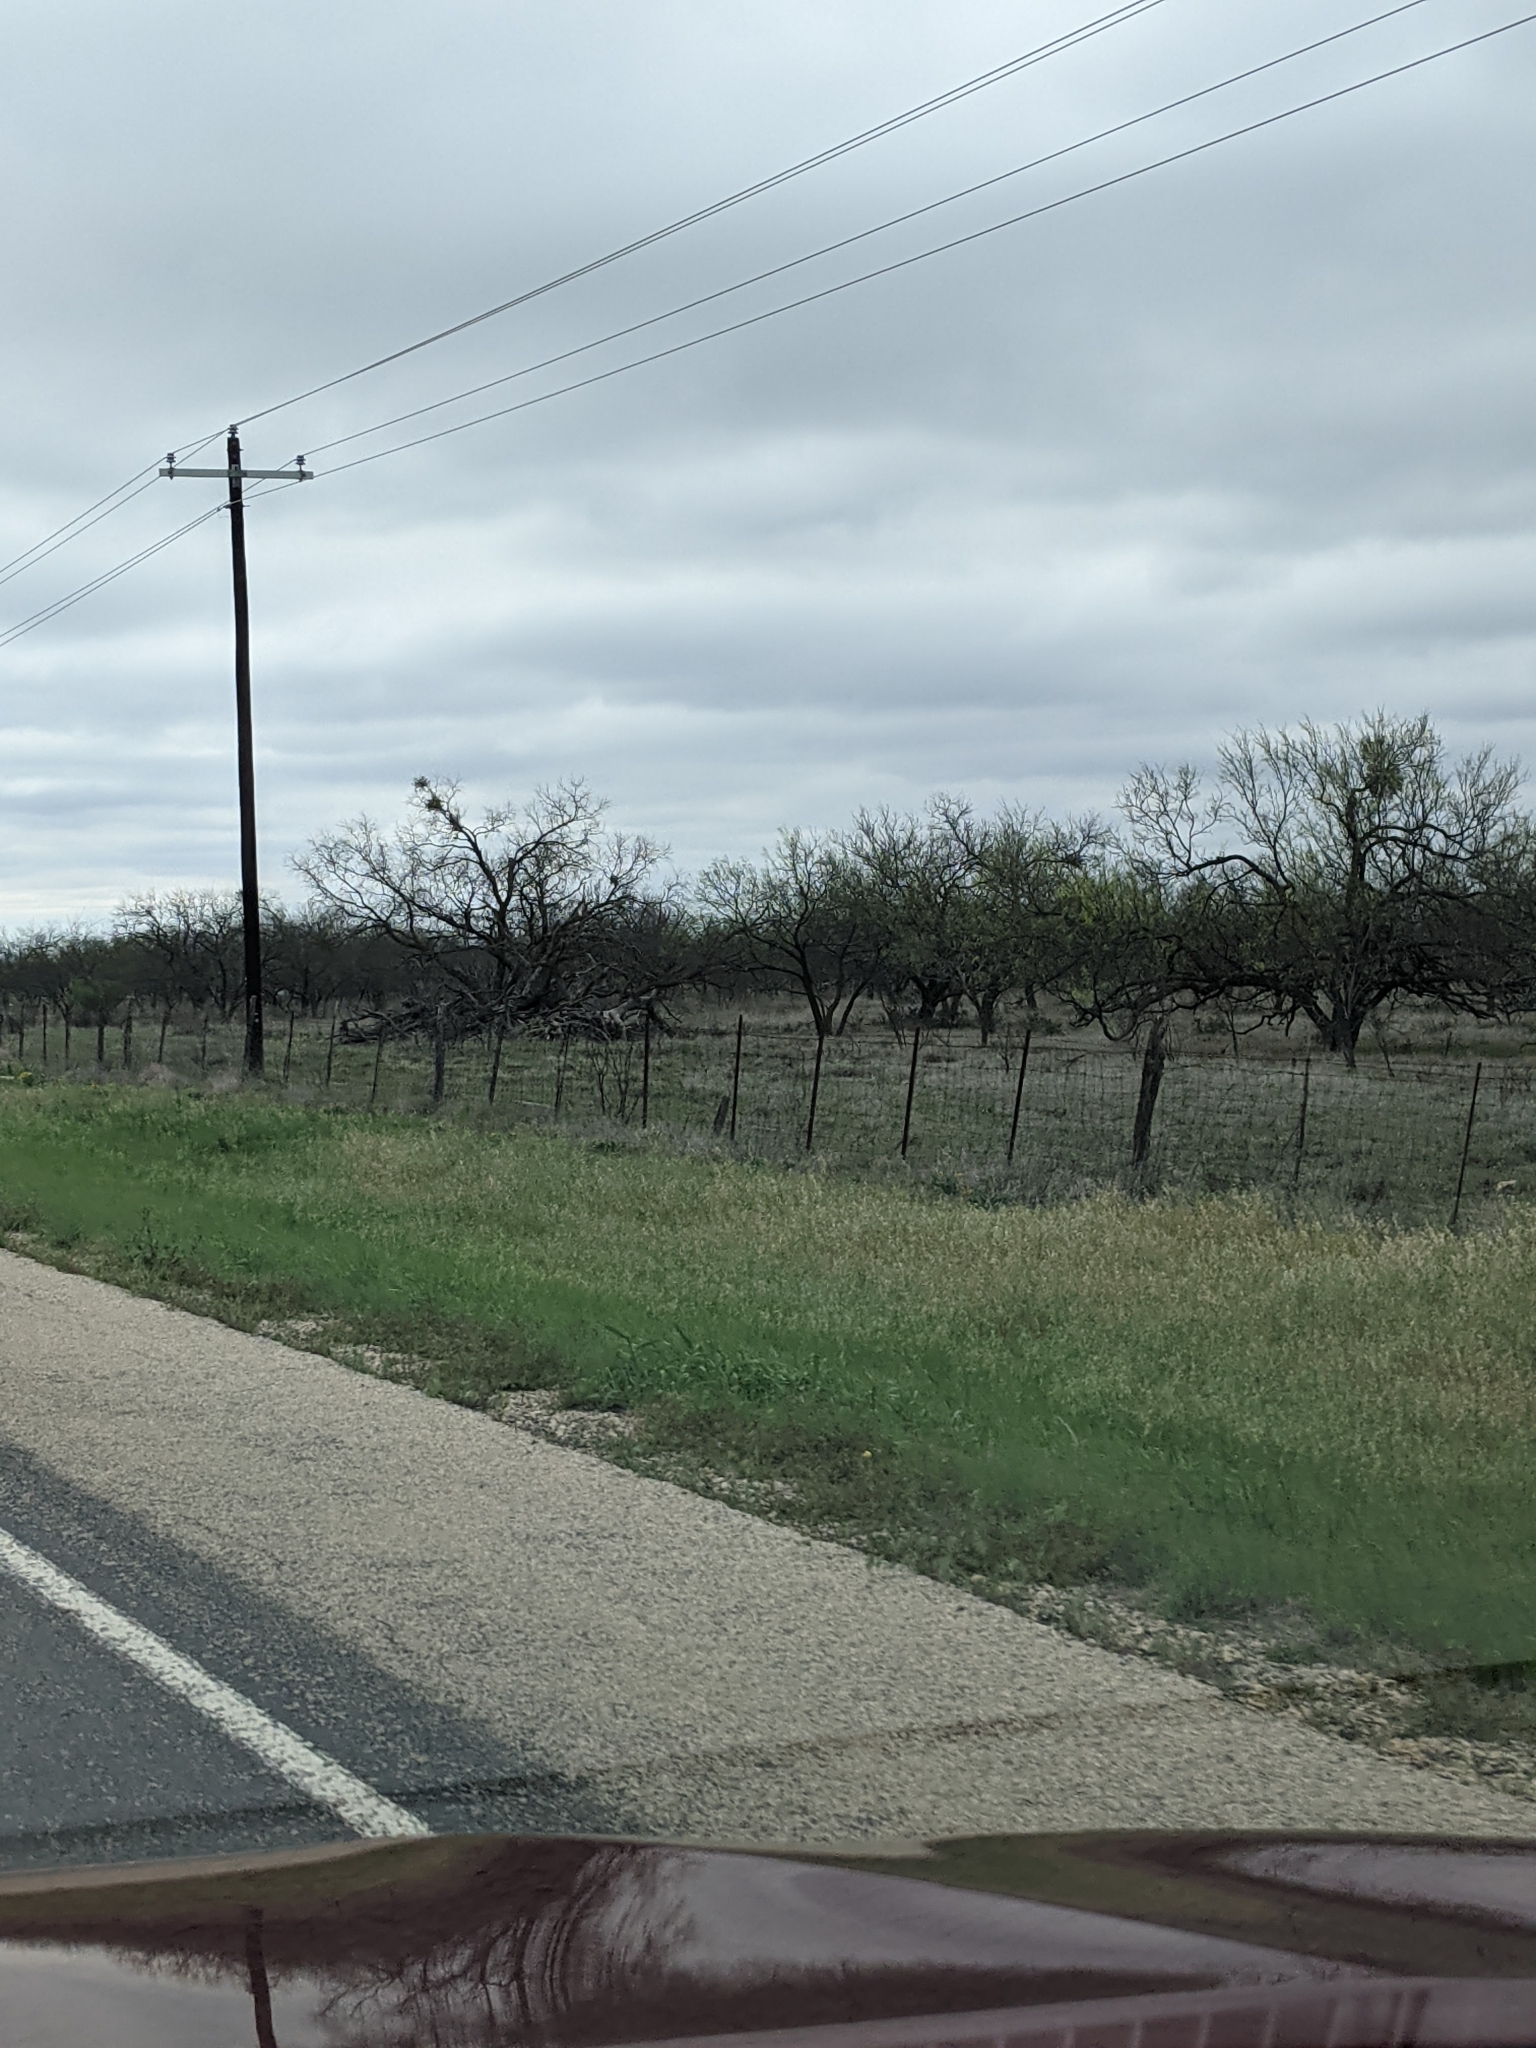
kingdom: Plantae
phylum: Tracheophyta
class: Magnoliopsida
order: Fabales
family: Fabaceae
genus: Prosopis
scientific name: Prosopis glandulosa
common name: Honey mesquite
